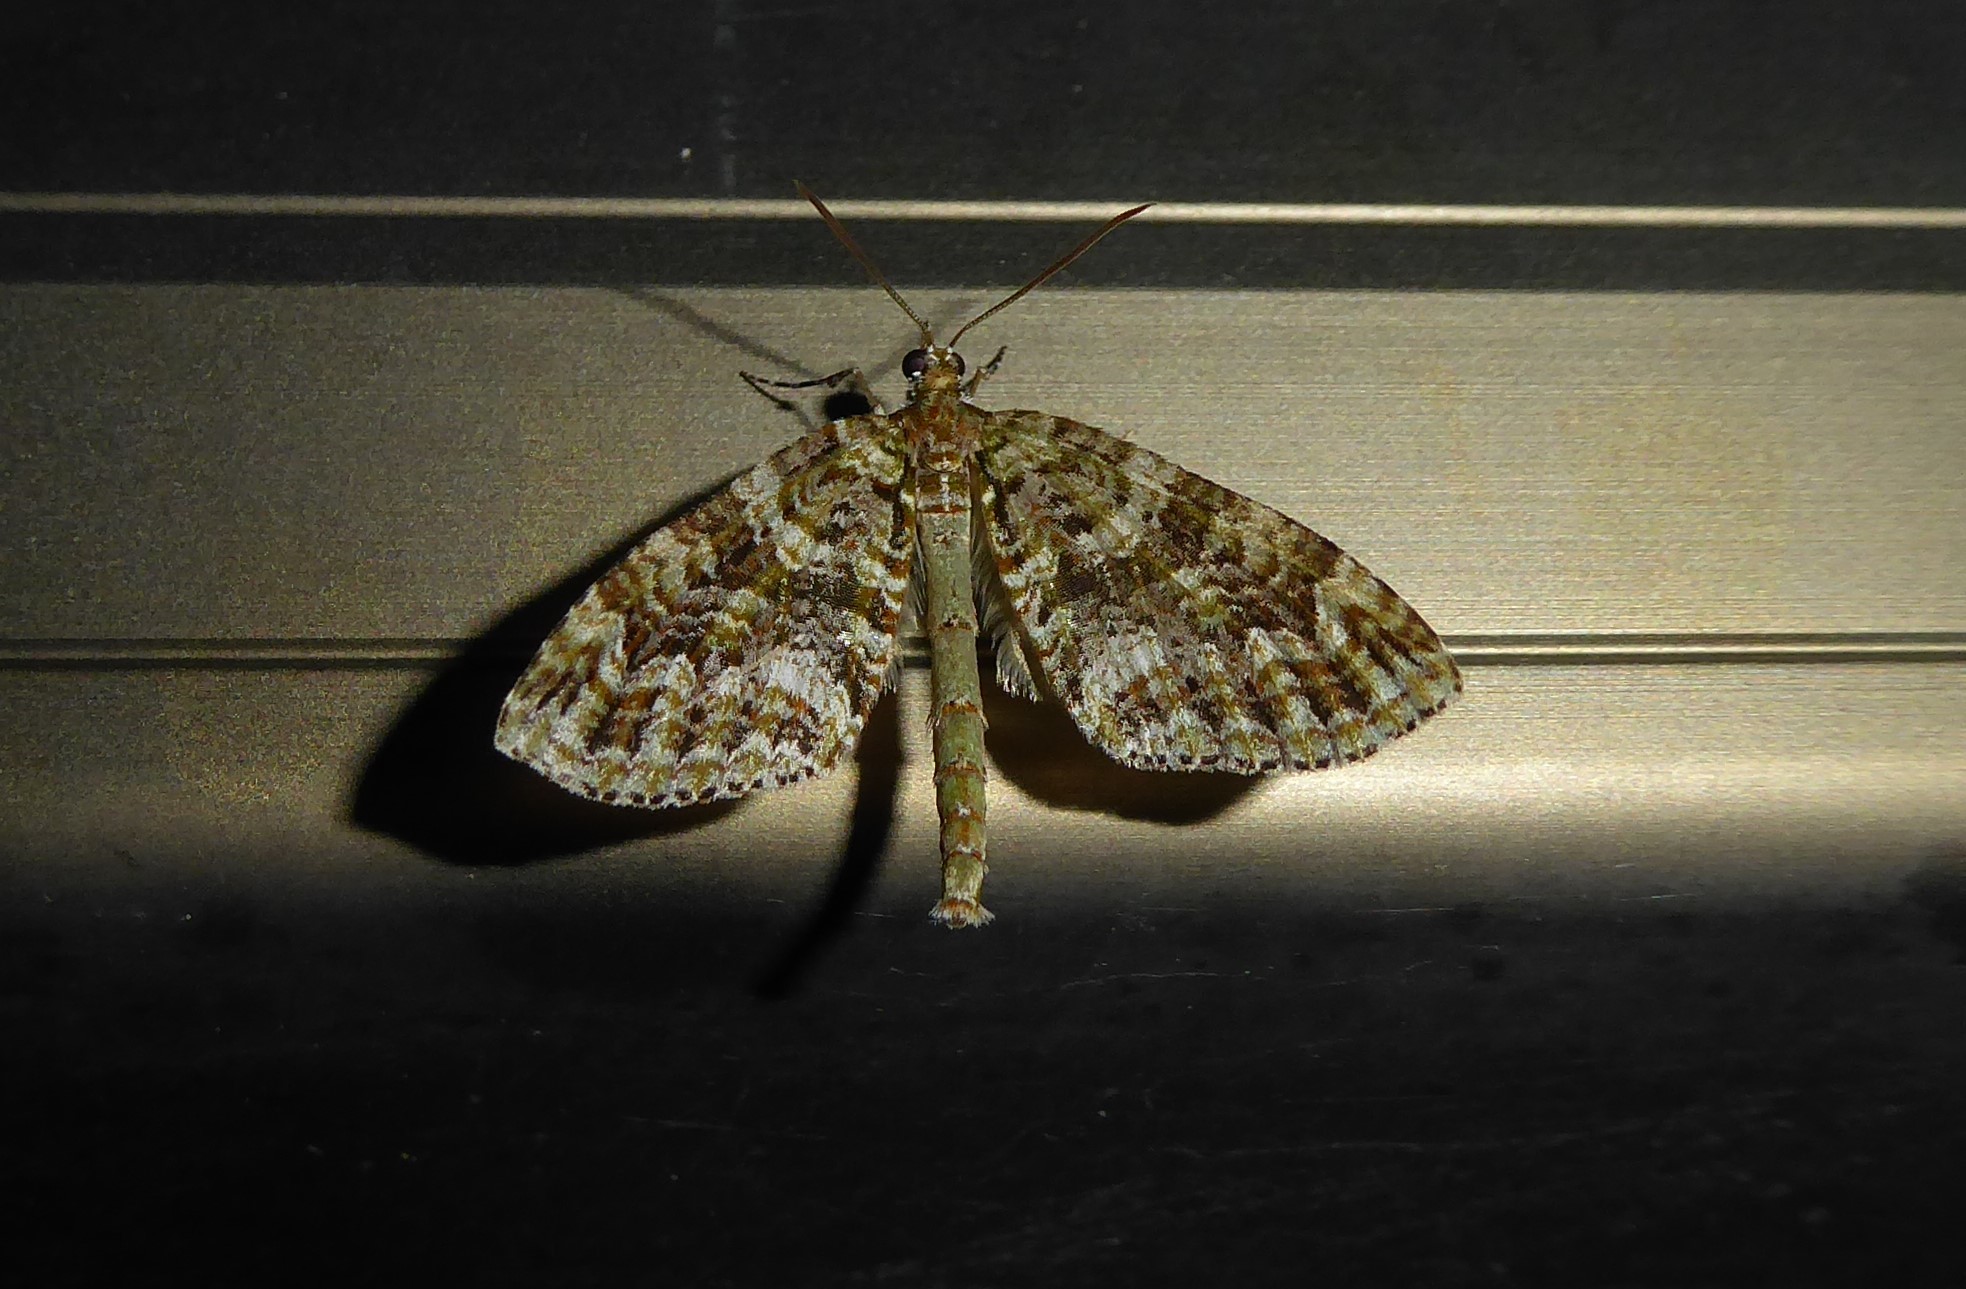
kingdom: Animalia
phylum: Arthropoda
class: Insecta
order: Lepidoptera
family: Geometridae
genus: Tatosoma
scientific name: Tatosoma agrionata
